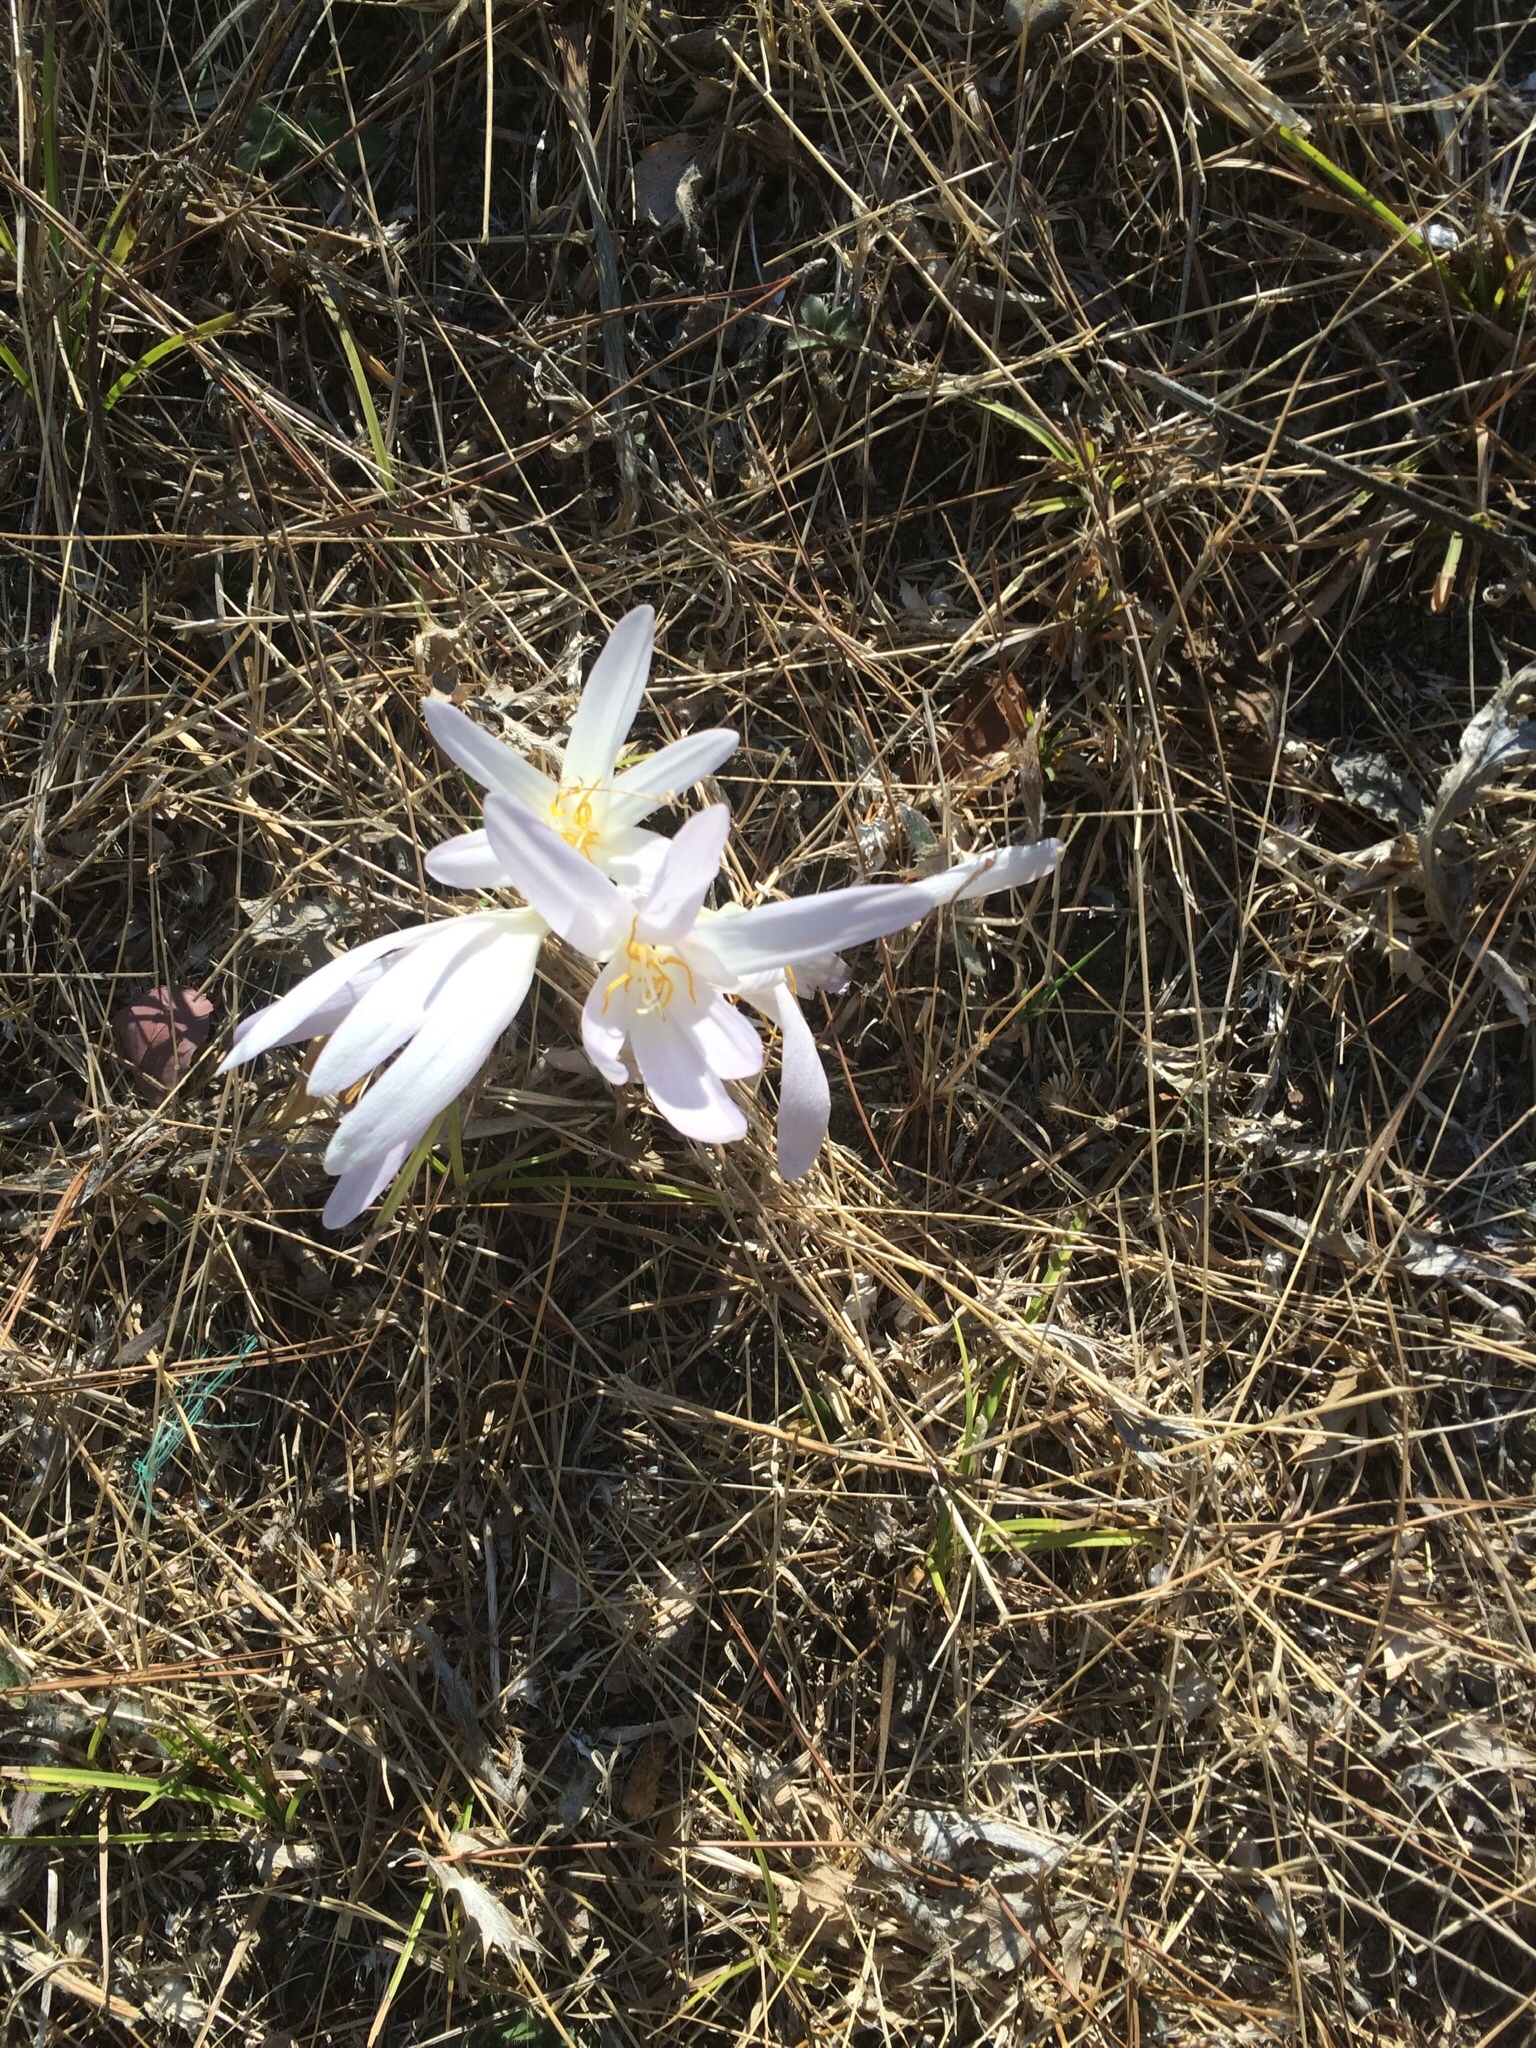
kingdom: Plantae
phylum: Tracheophyta
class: Liliopsida
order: Liliales
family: Colchicaceae
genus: Colchicum
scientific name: Colchicum balansae
